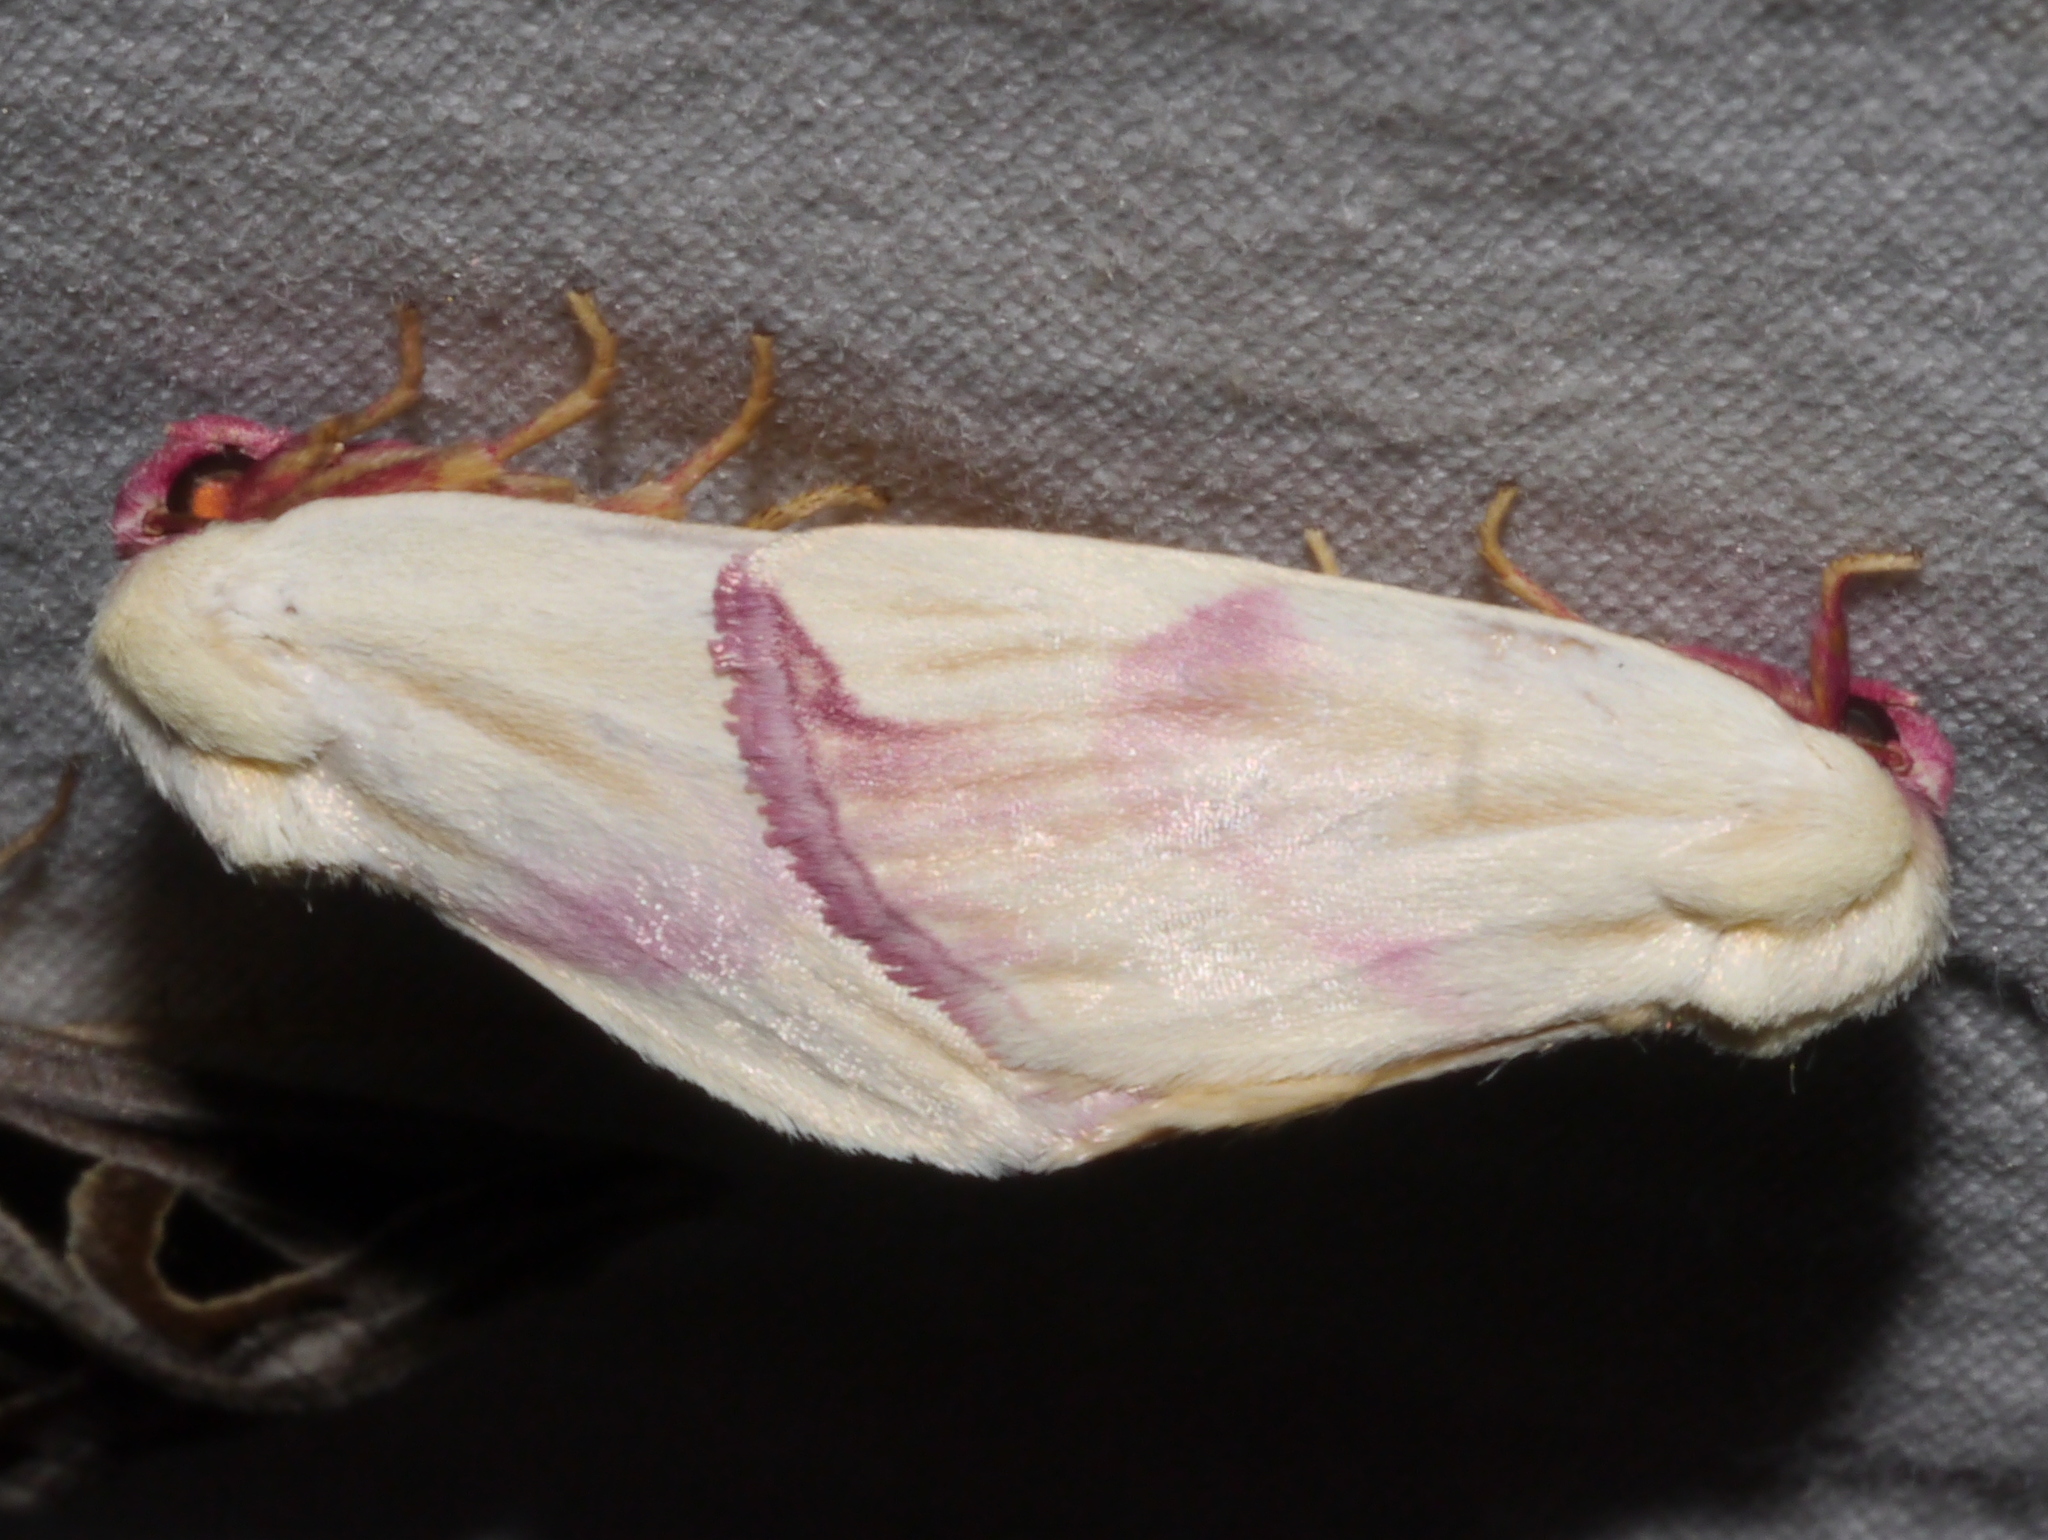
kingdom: Animalia
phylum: Arthropoda
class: Insecta
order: Lepidoptera
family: Noctuidae
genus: Thurberiphaga
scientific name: Thurberiphaga diffusa
